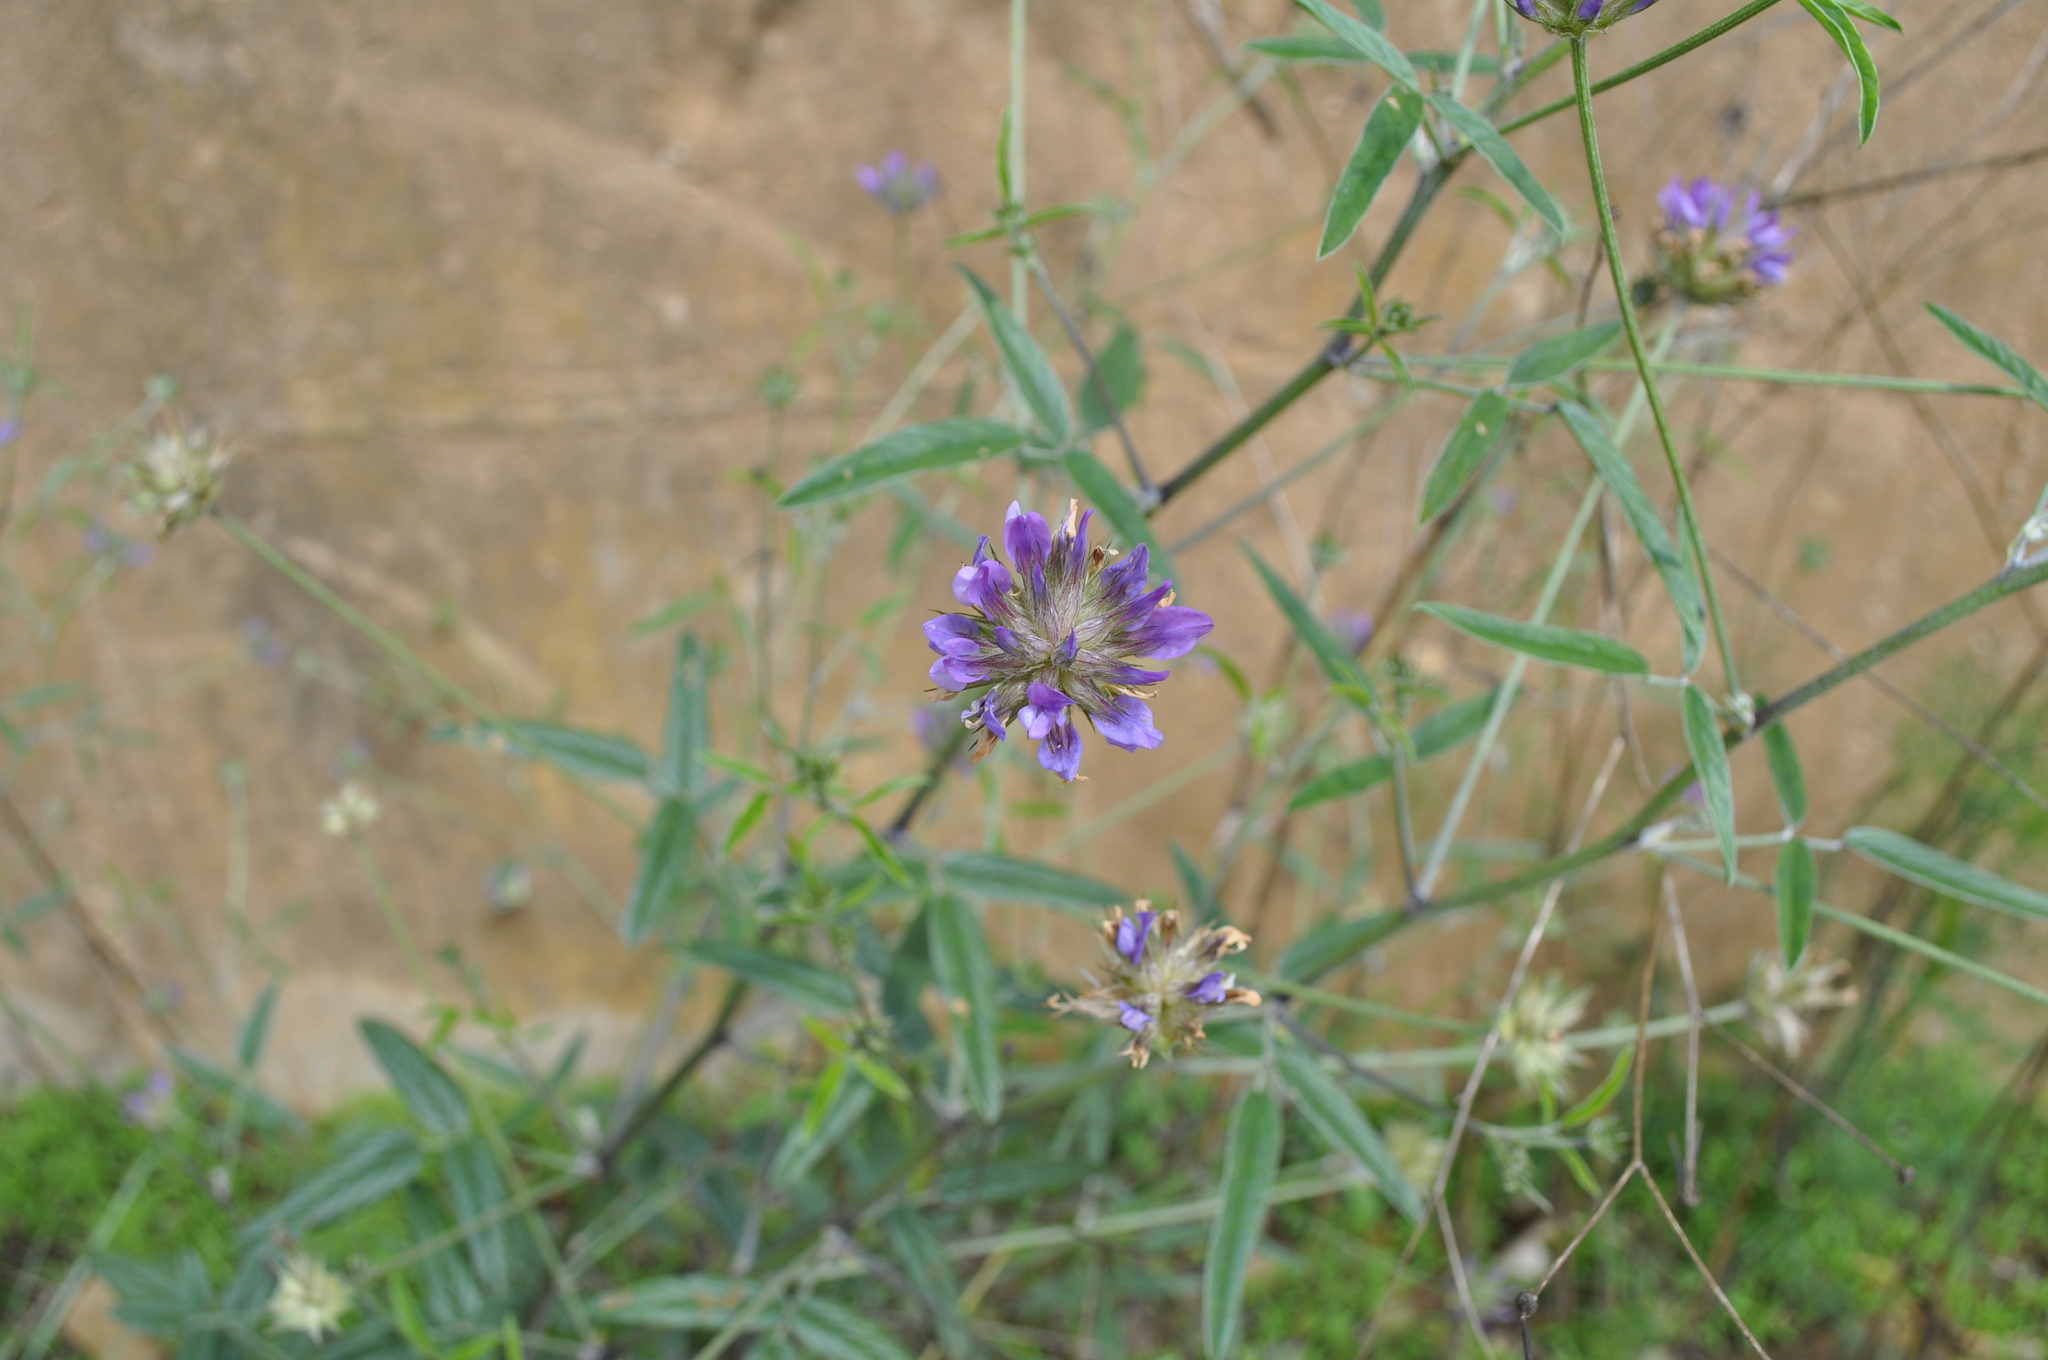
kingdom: Plantae
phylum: Tracheophyta
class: Magnoliopsida
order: Fabales
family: Fabaceae
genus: Bituminaria
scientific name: Bituminaria bituminosa
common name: Arabian pea
